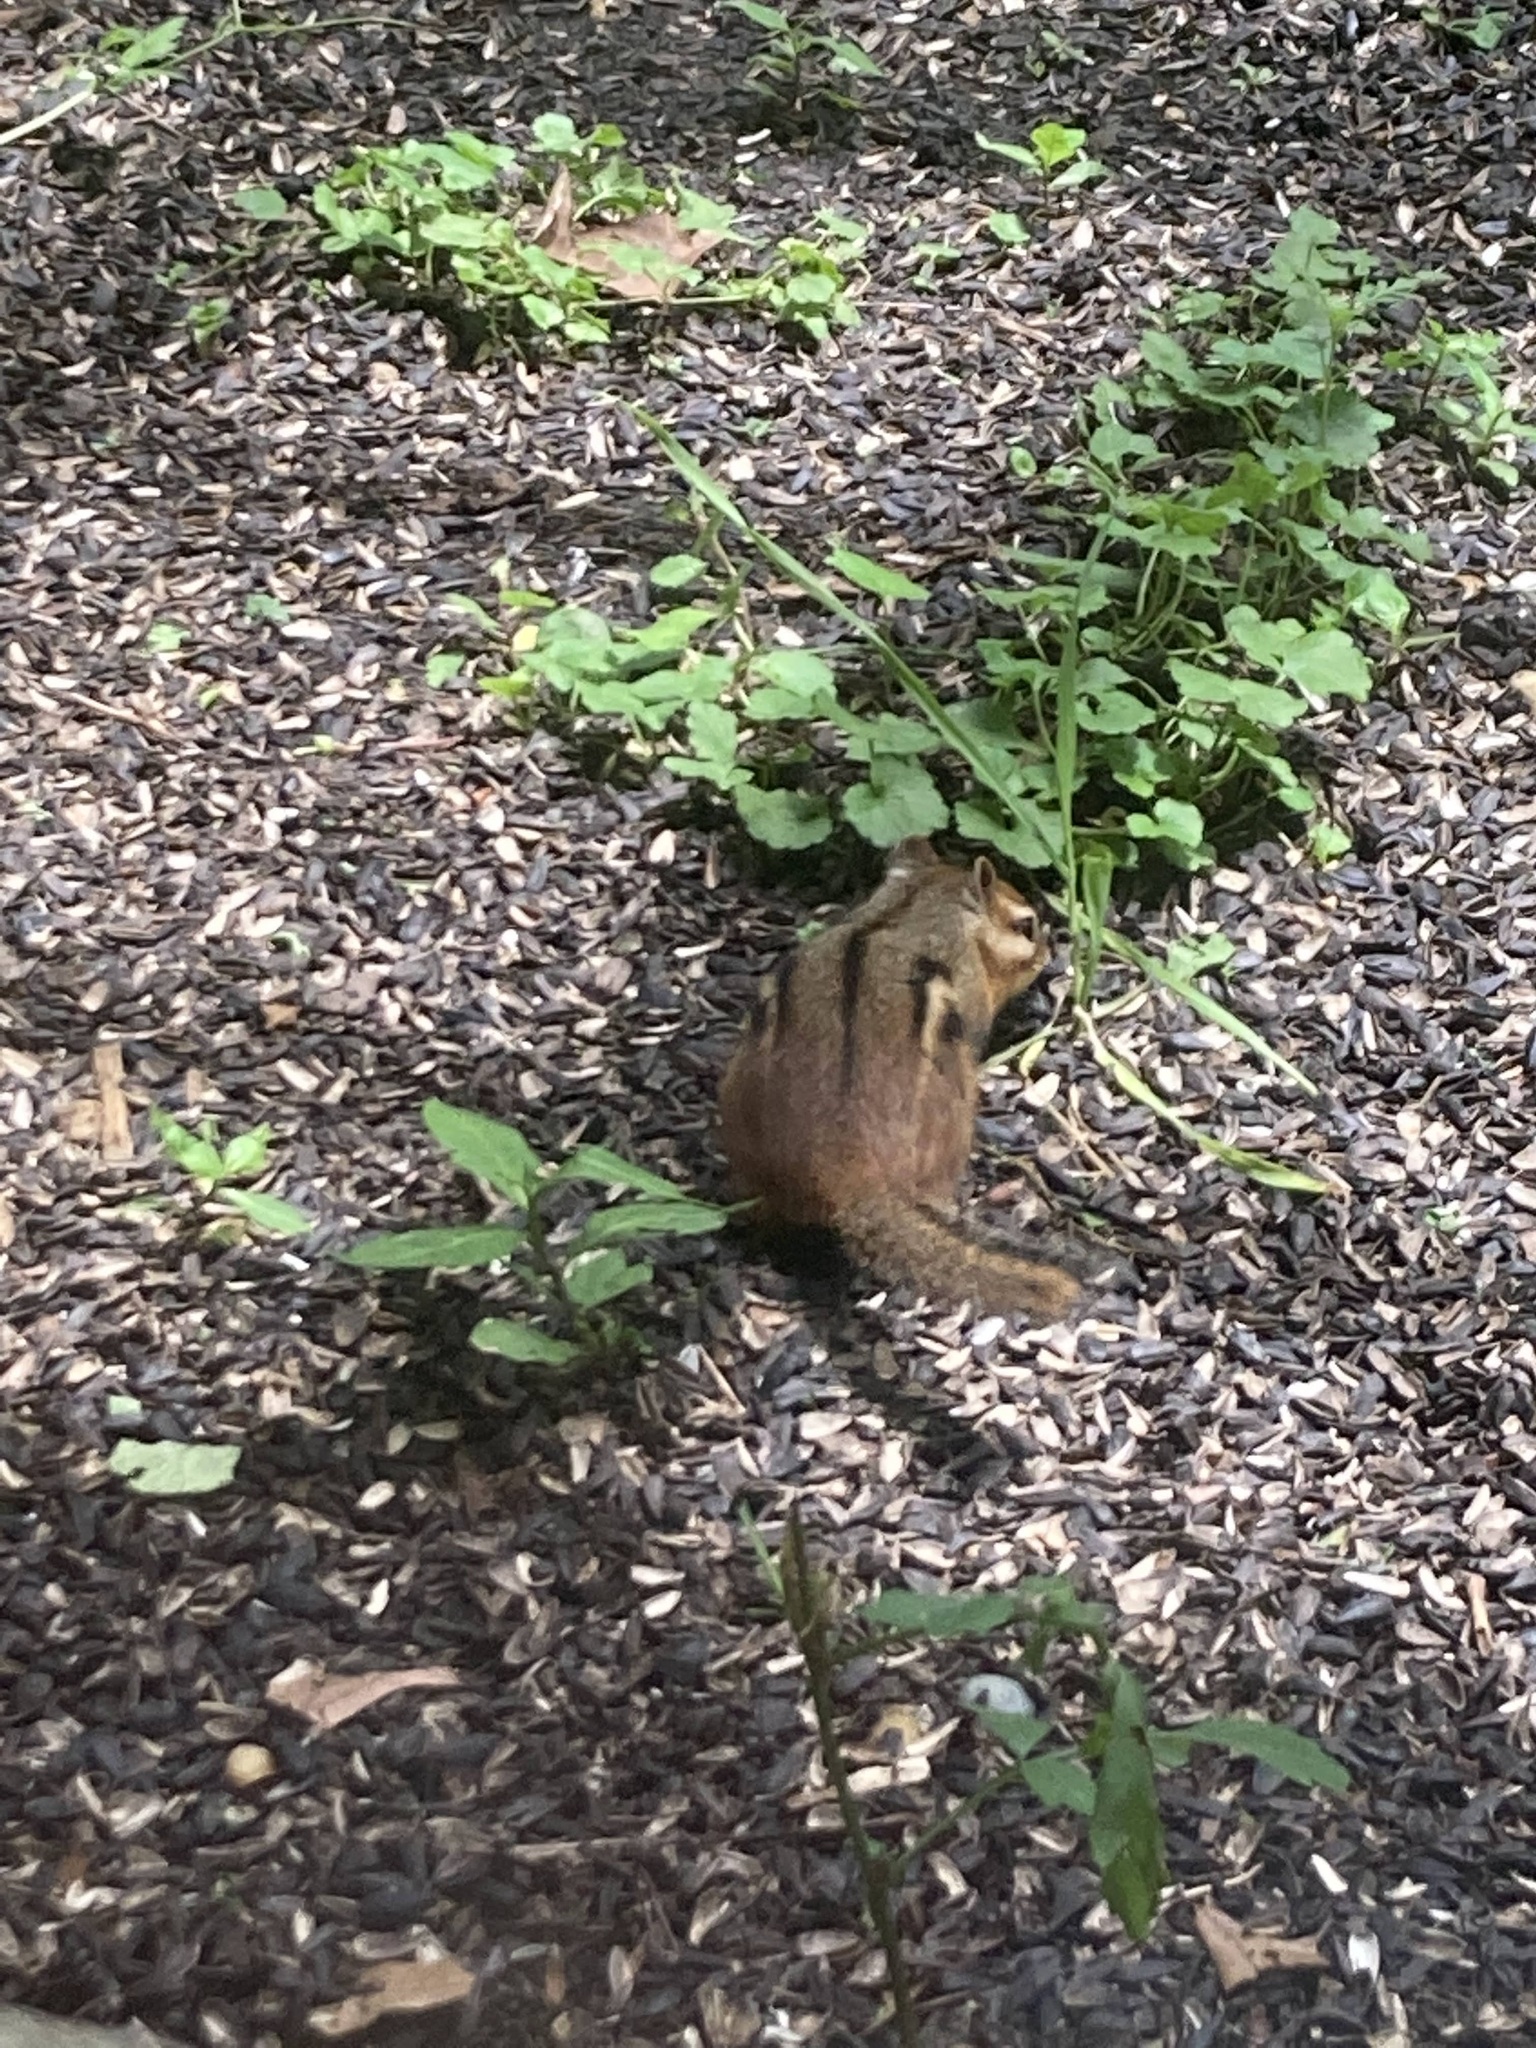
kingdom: Animalia
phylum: Chordata
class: Mammalia
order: Rodentia
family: Sciuridae
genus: Tamias
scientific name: Tamias striatus
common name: Eastern chipmunk
